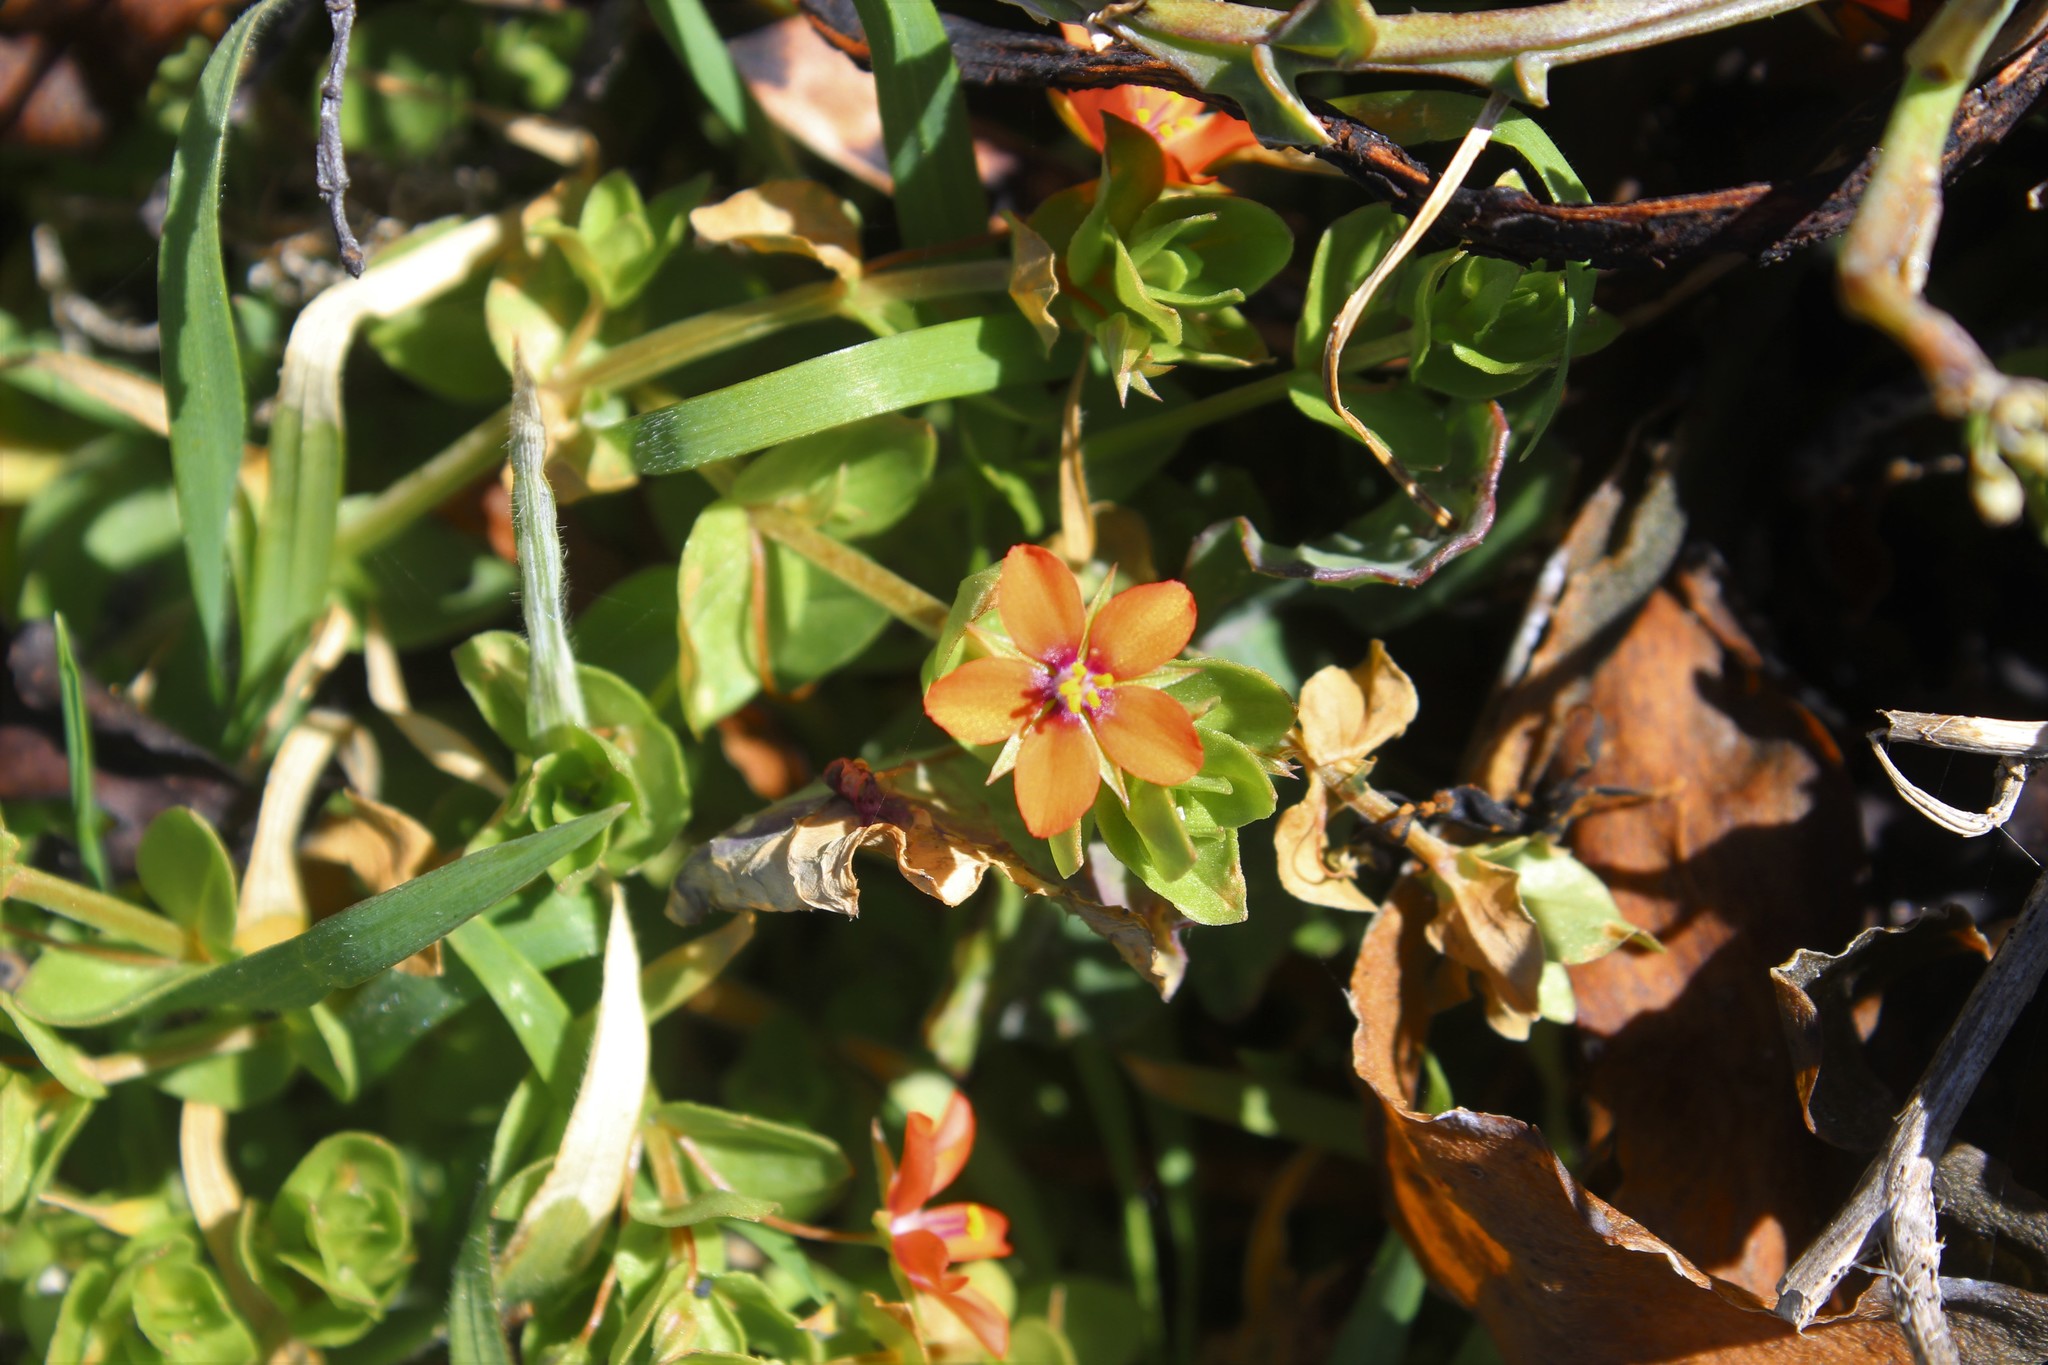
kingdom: Plantae
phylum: Tracheophyta
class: Magnoliopsida
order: Ericales
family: Primulaceae
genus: Lysimachia
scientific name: Lysimachia arvensis
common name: Scarlet pimpernel
